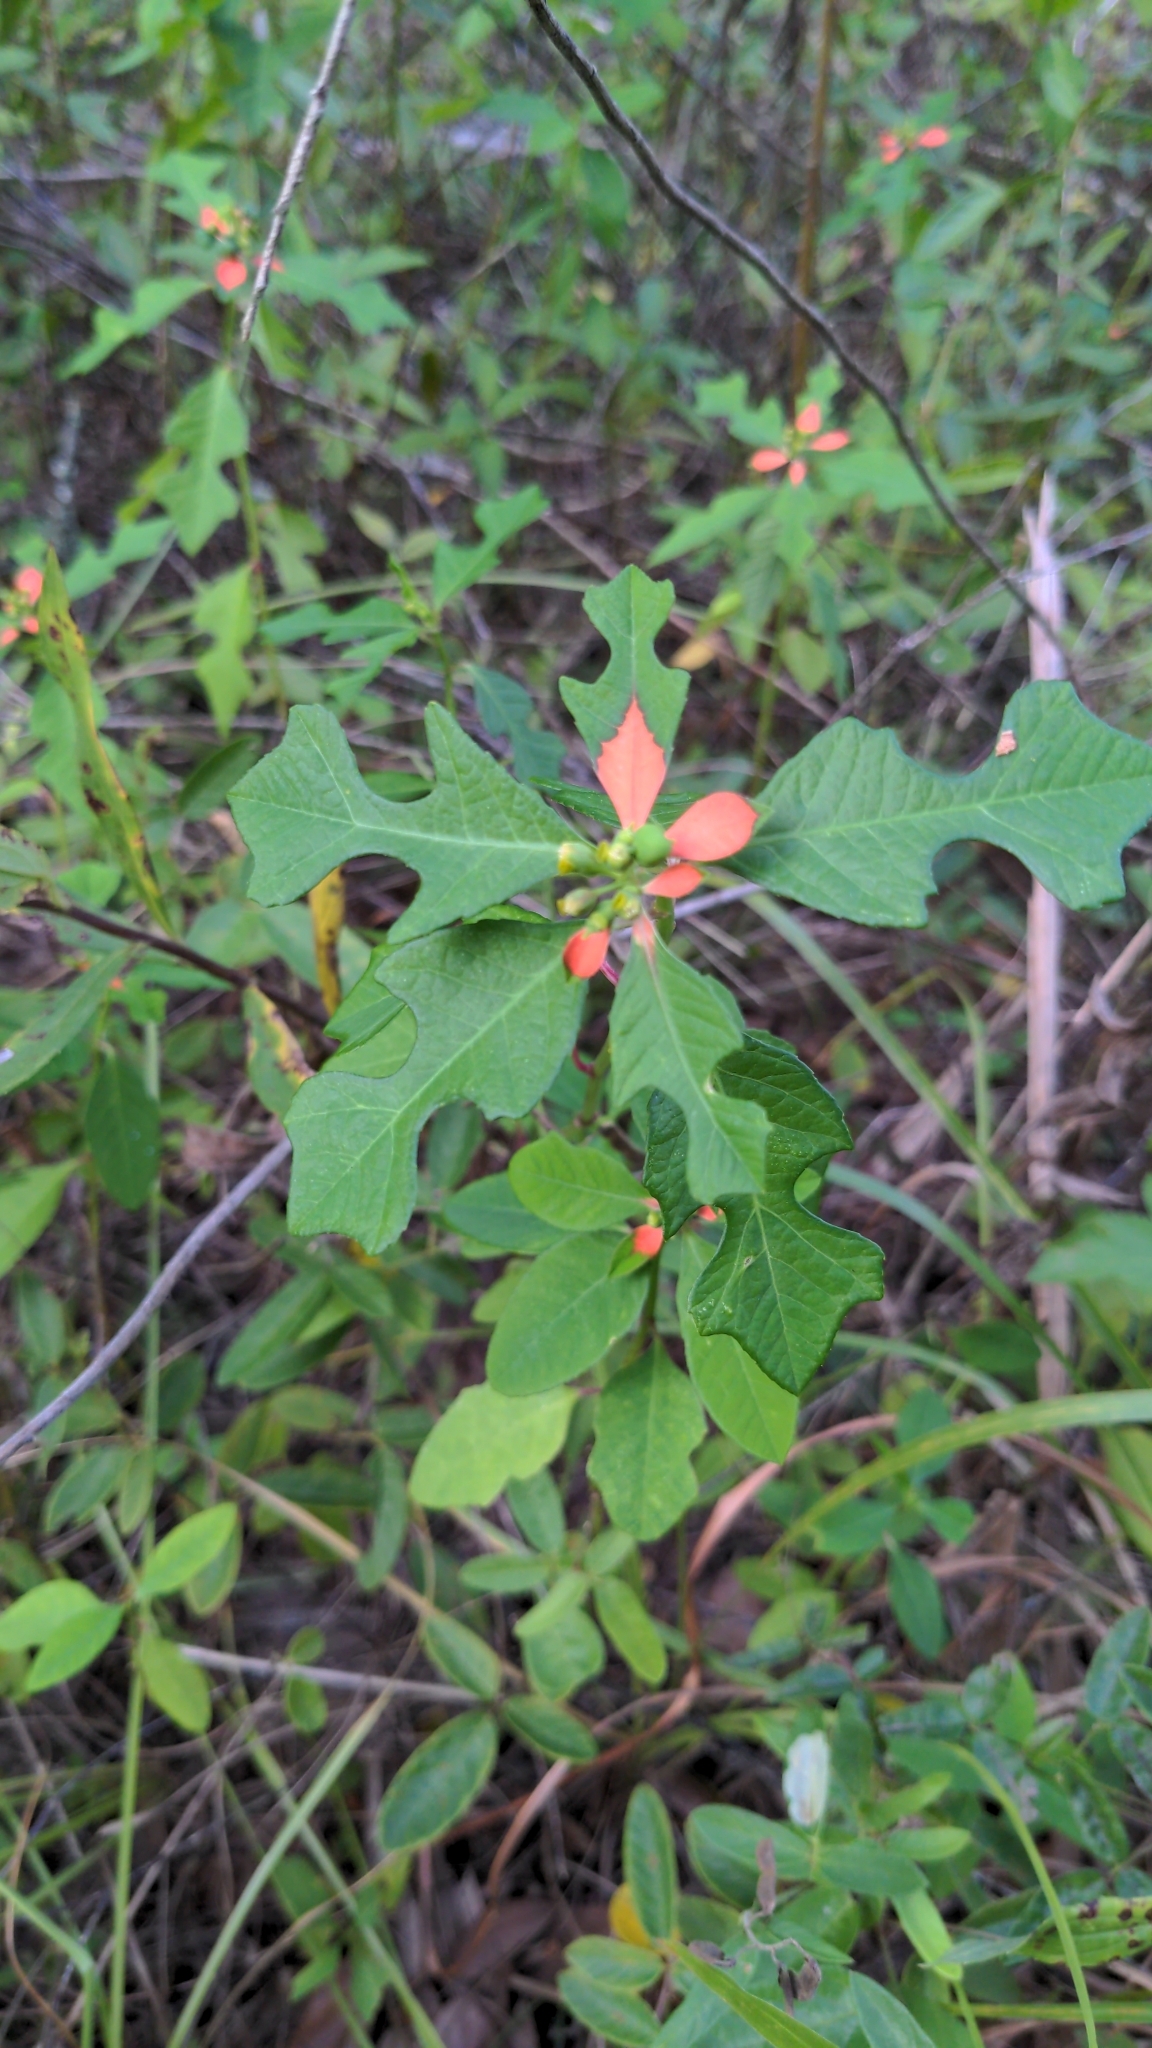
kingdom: Plantae
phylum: Tracheophyta
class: Magnoliopsida
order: Malpighiales
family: Euphorbiaceae
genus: Euphorbia
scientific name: Euphorbia heterophylla
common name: Mexican fireplant
